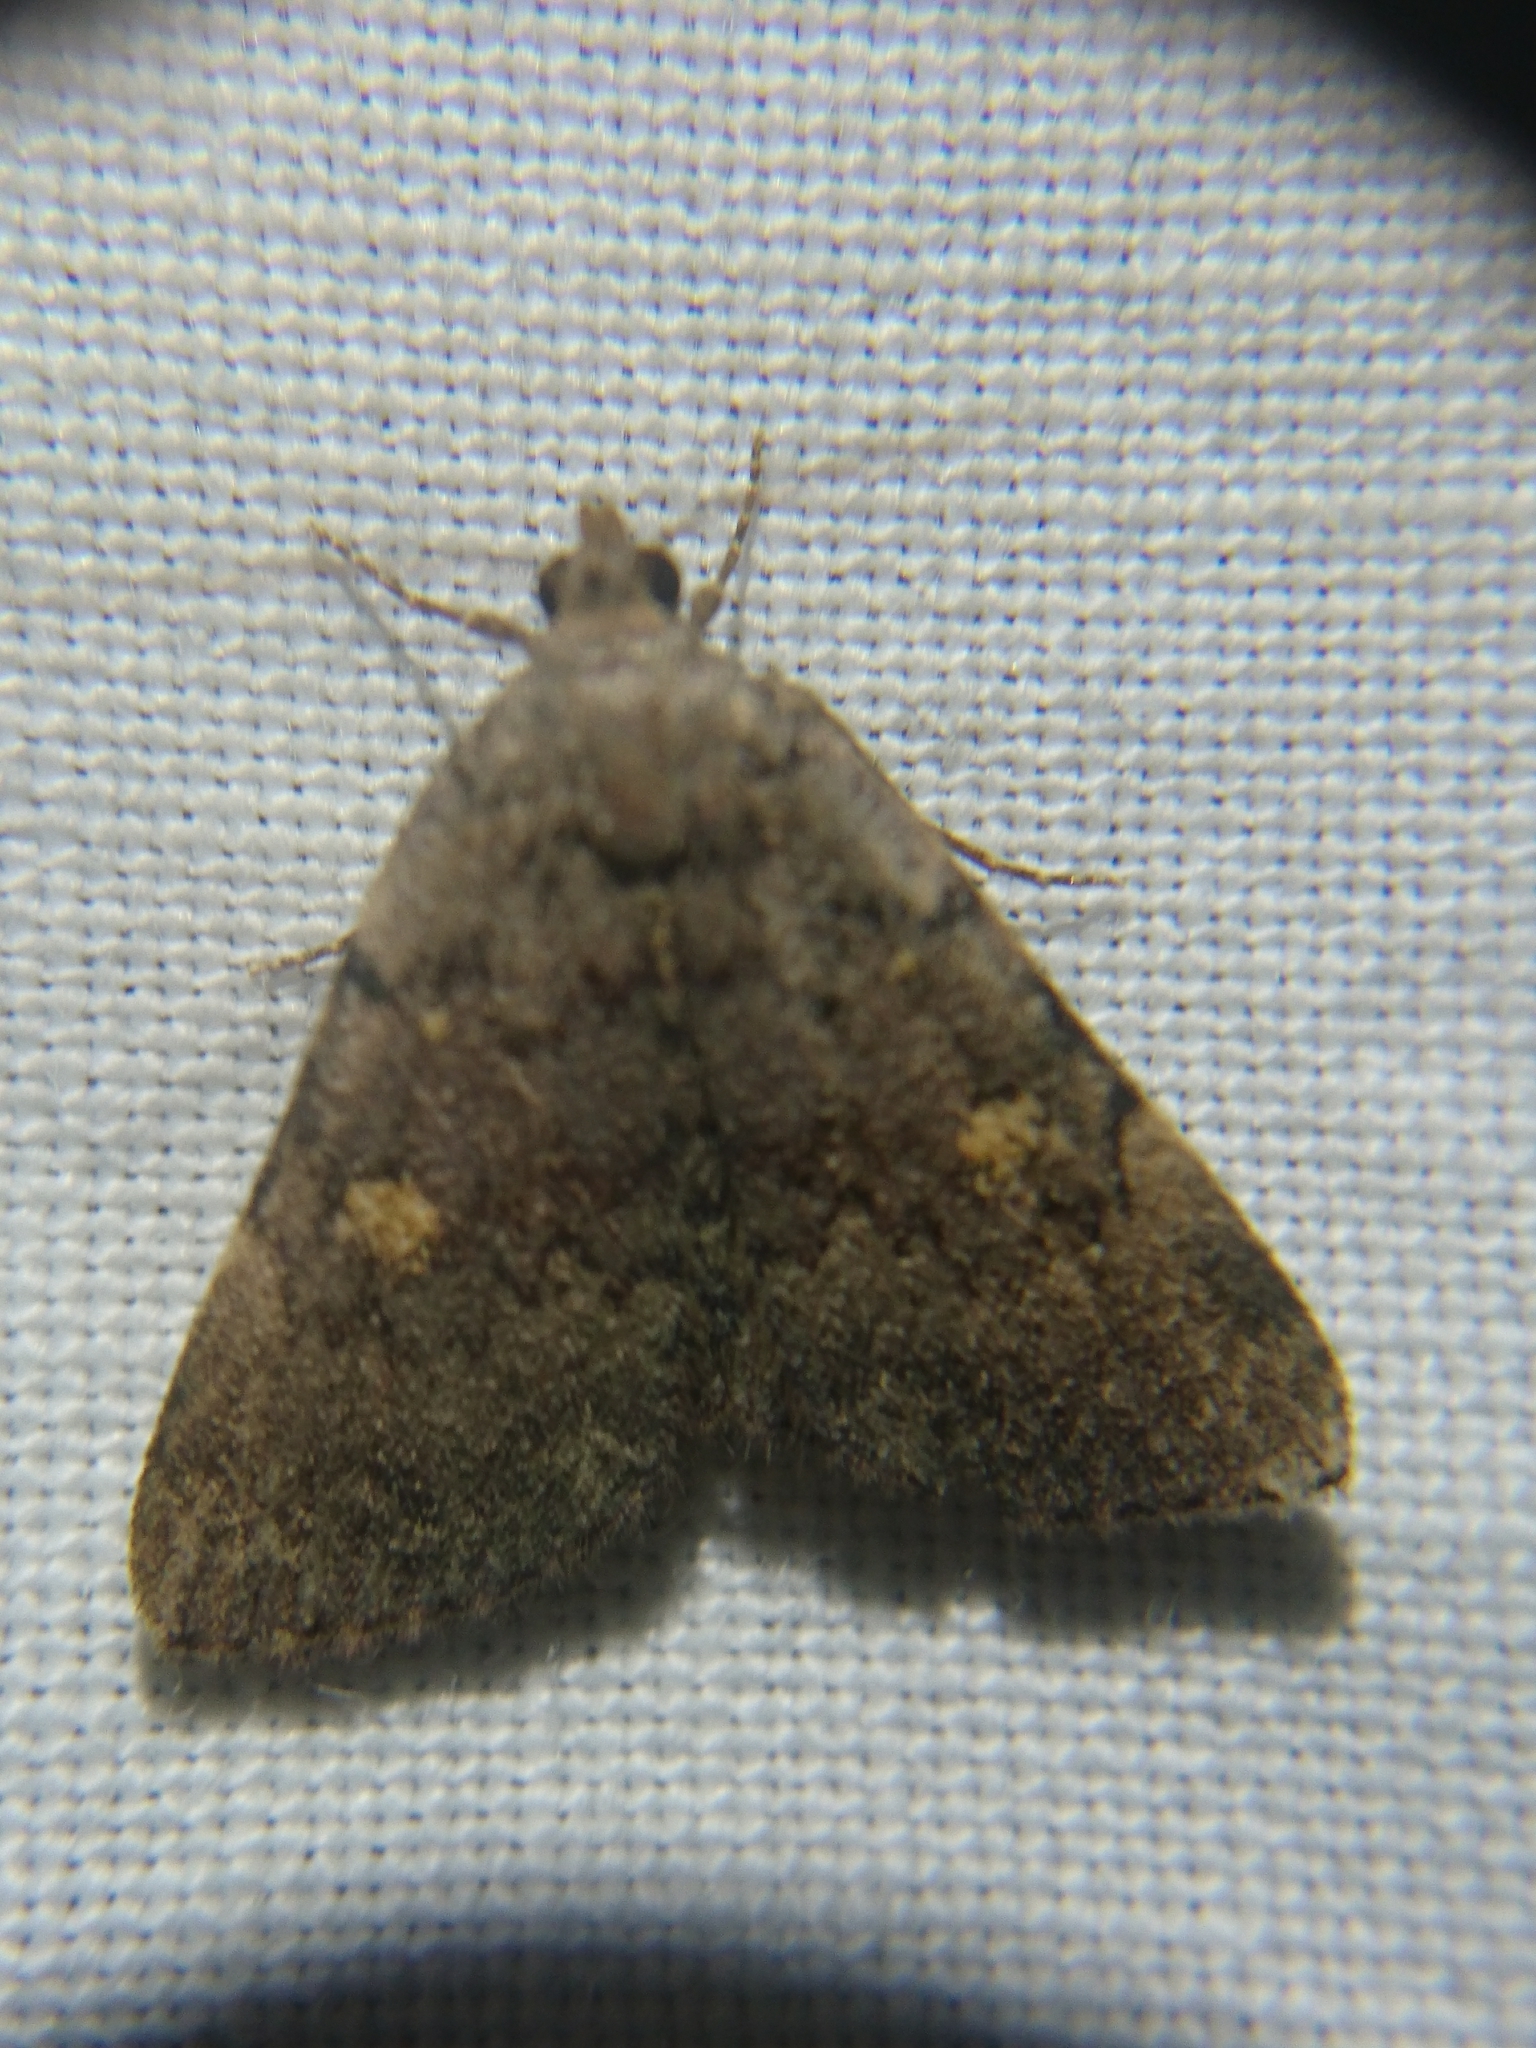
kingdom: Animalia
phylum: Arthropoda
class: Insecta
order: Lepidoptera
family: Erebidae
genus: Idia
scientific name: Idia aemula
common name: Common idia moth
